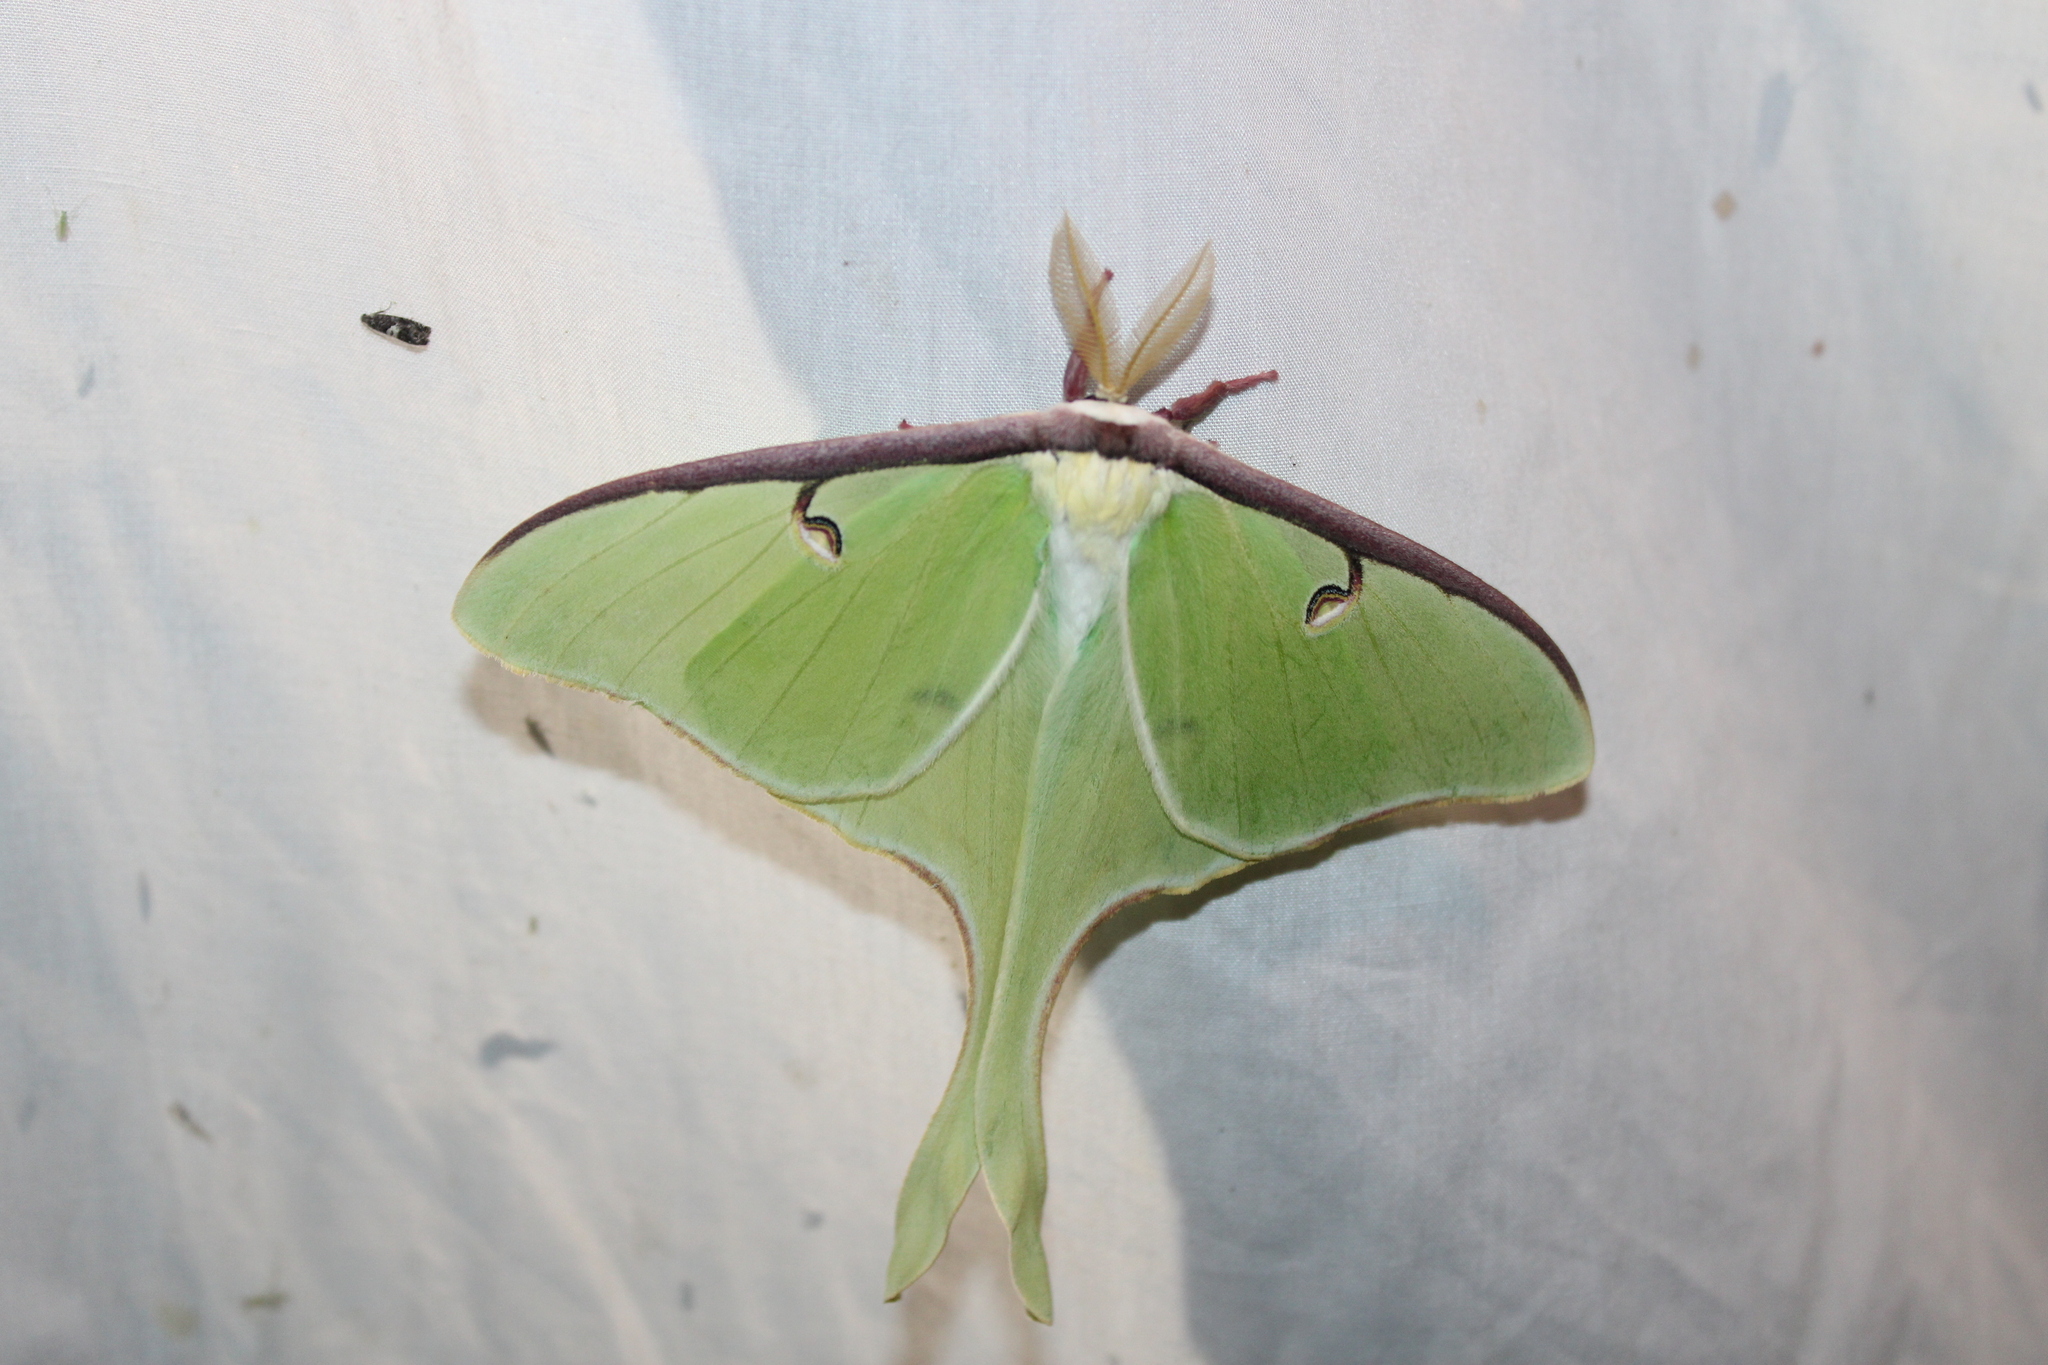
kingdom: Animalia
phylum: Arthropoda
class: Insecta
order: Lepidoptera
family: Saturniidae
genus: Actias
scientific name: Actias luna
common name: Luna moth
